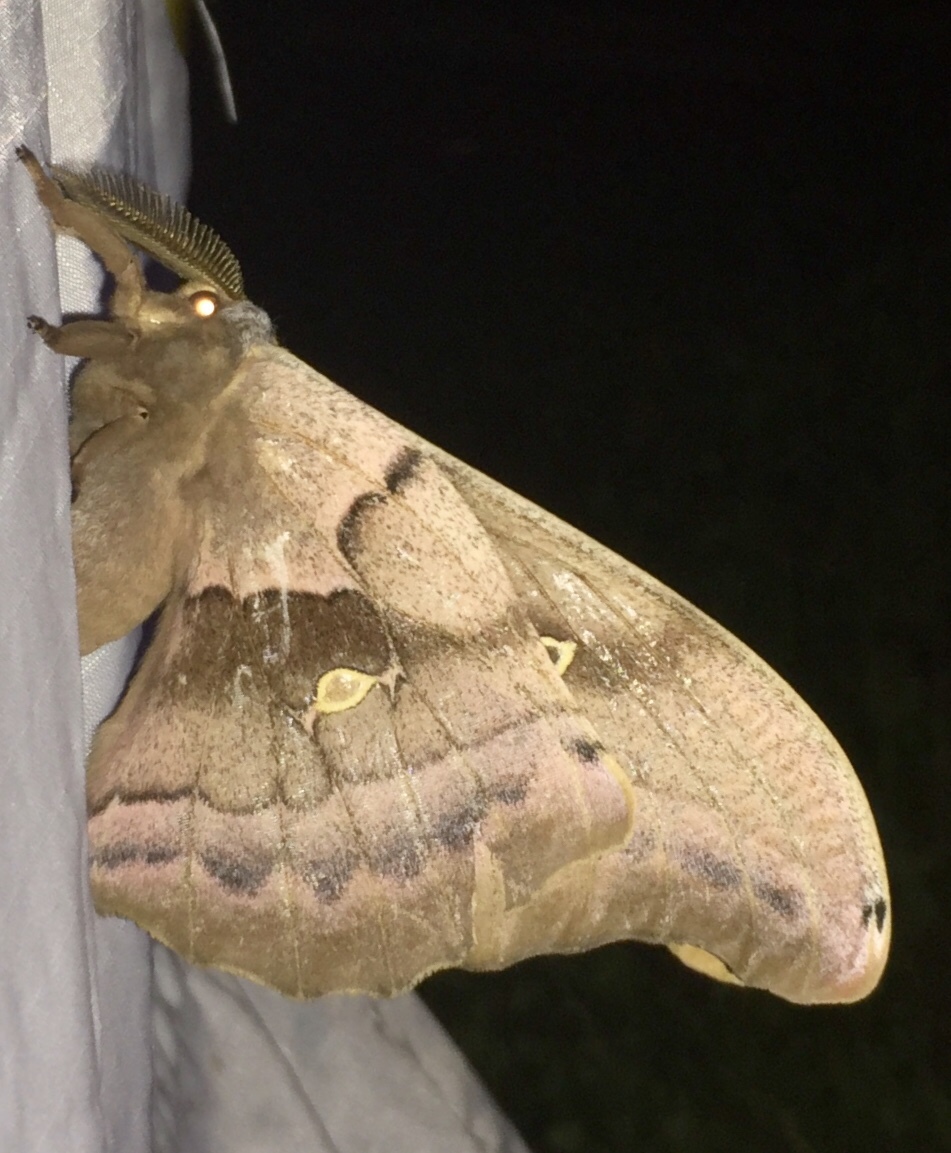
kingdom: Animalia
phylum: Arthropoda
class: Insecta
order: Lepidoptera
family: Saturniidae
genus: Antheraea
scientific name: Antheraea polyphemus
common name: Polyphemus moth
